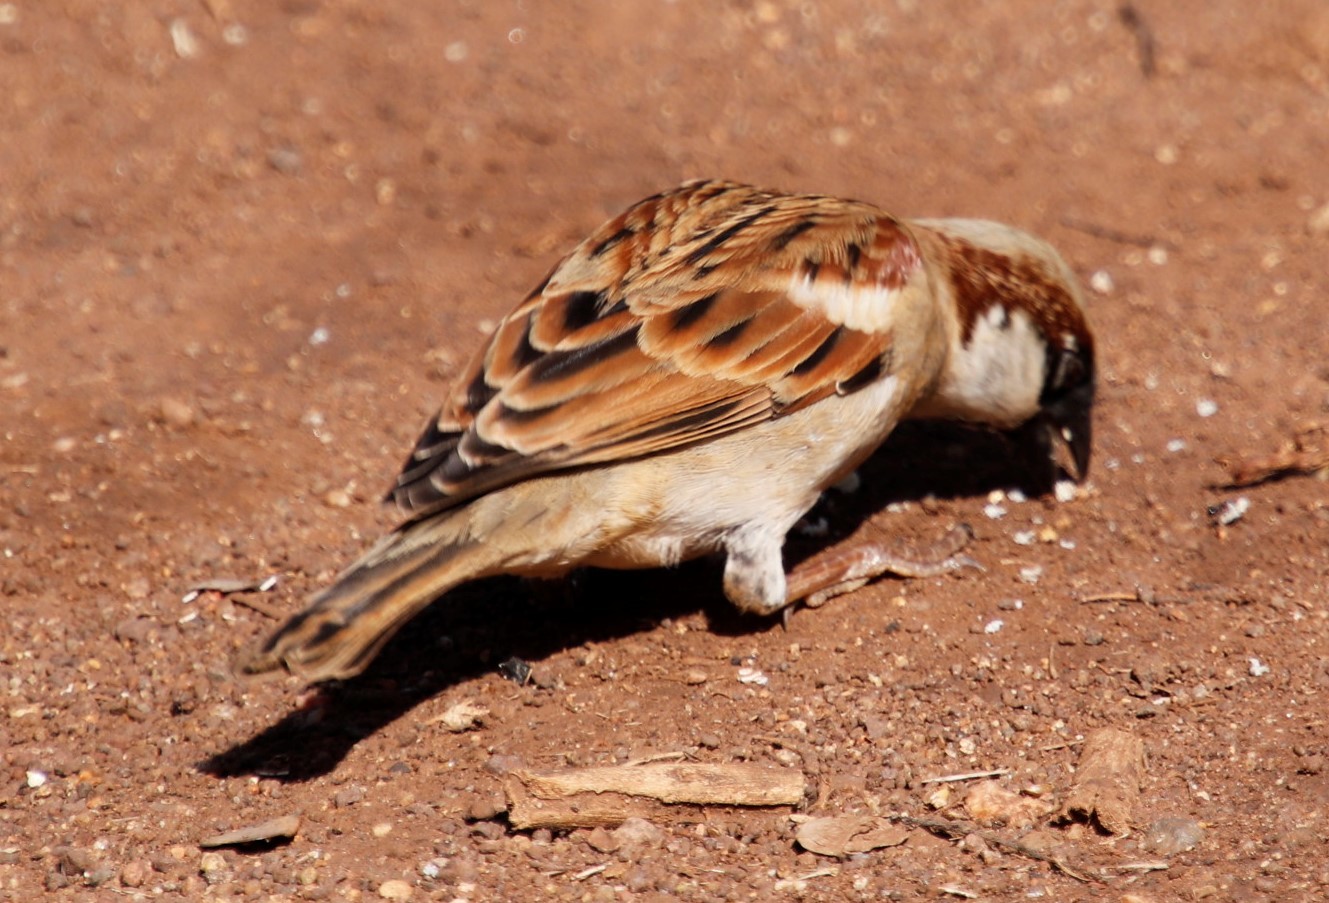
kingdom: Animalia
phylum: Chordata
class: Aves
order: Passeriformes
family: Passeridae
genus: Passer
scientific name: Passer domesticus
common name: House sparrow
